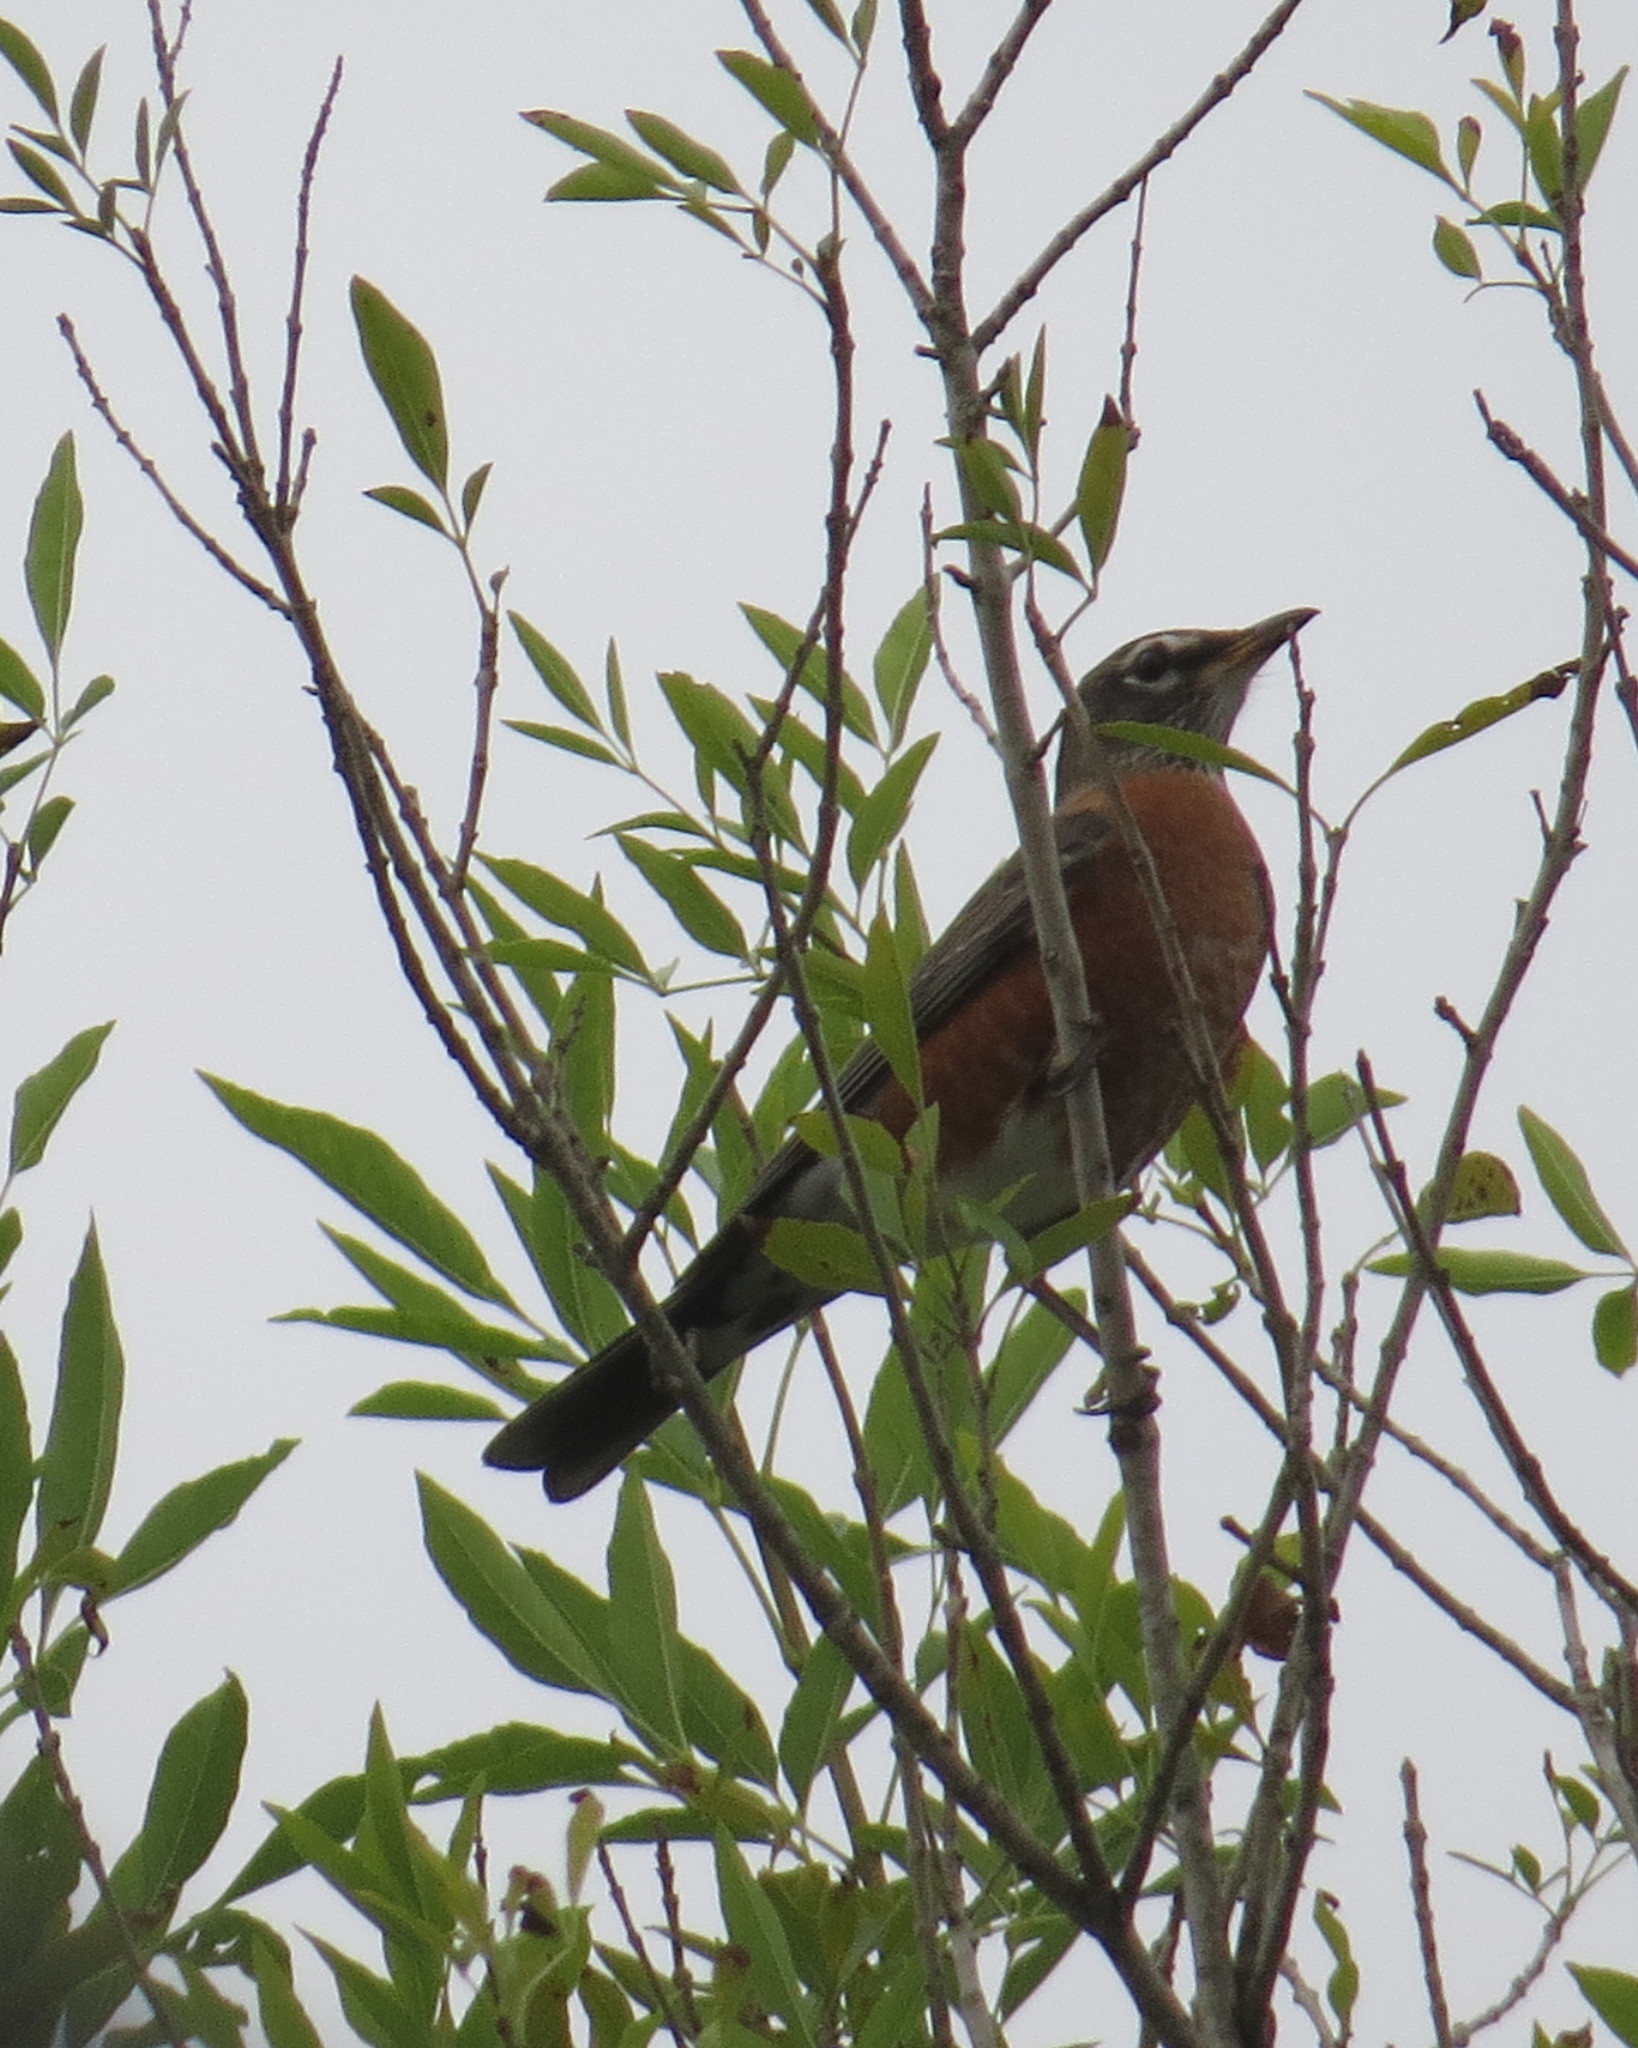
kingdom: Animalia
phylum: Chordata
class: Aves
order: Passeriformes
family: Turdidae
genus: Turdus
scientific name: Turdus migratorius
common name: American robin
